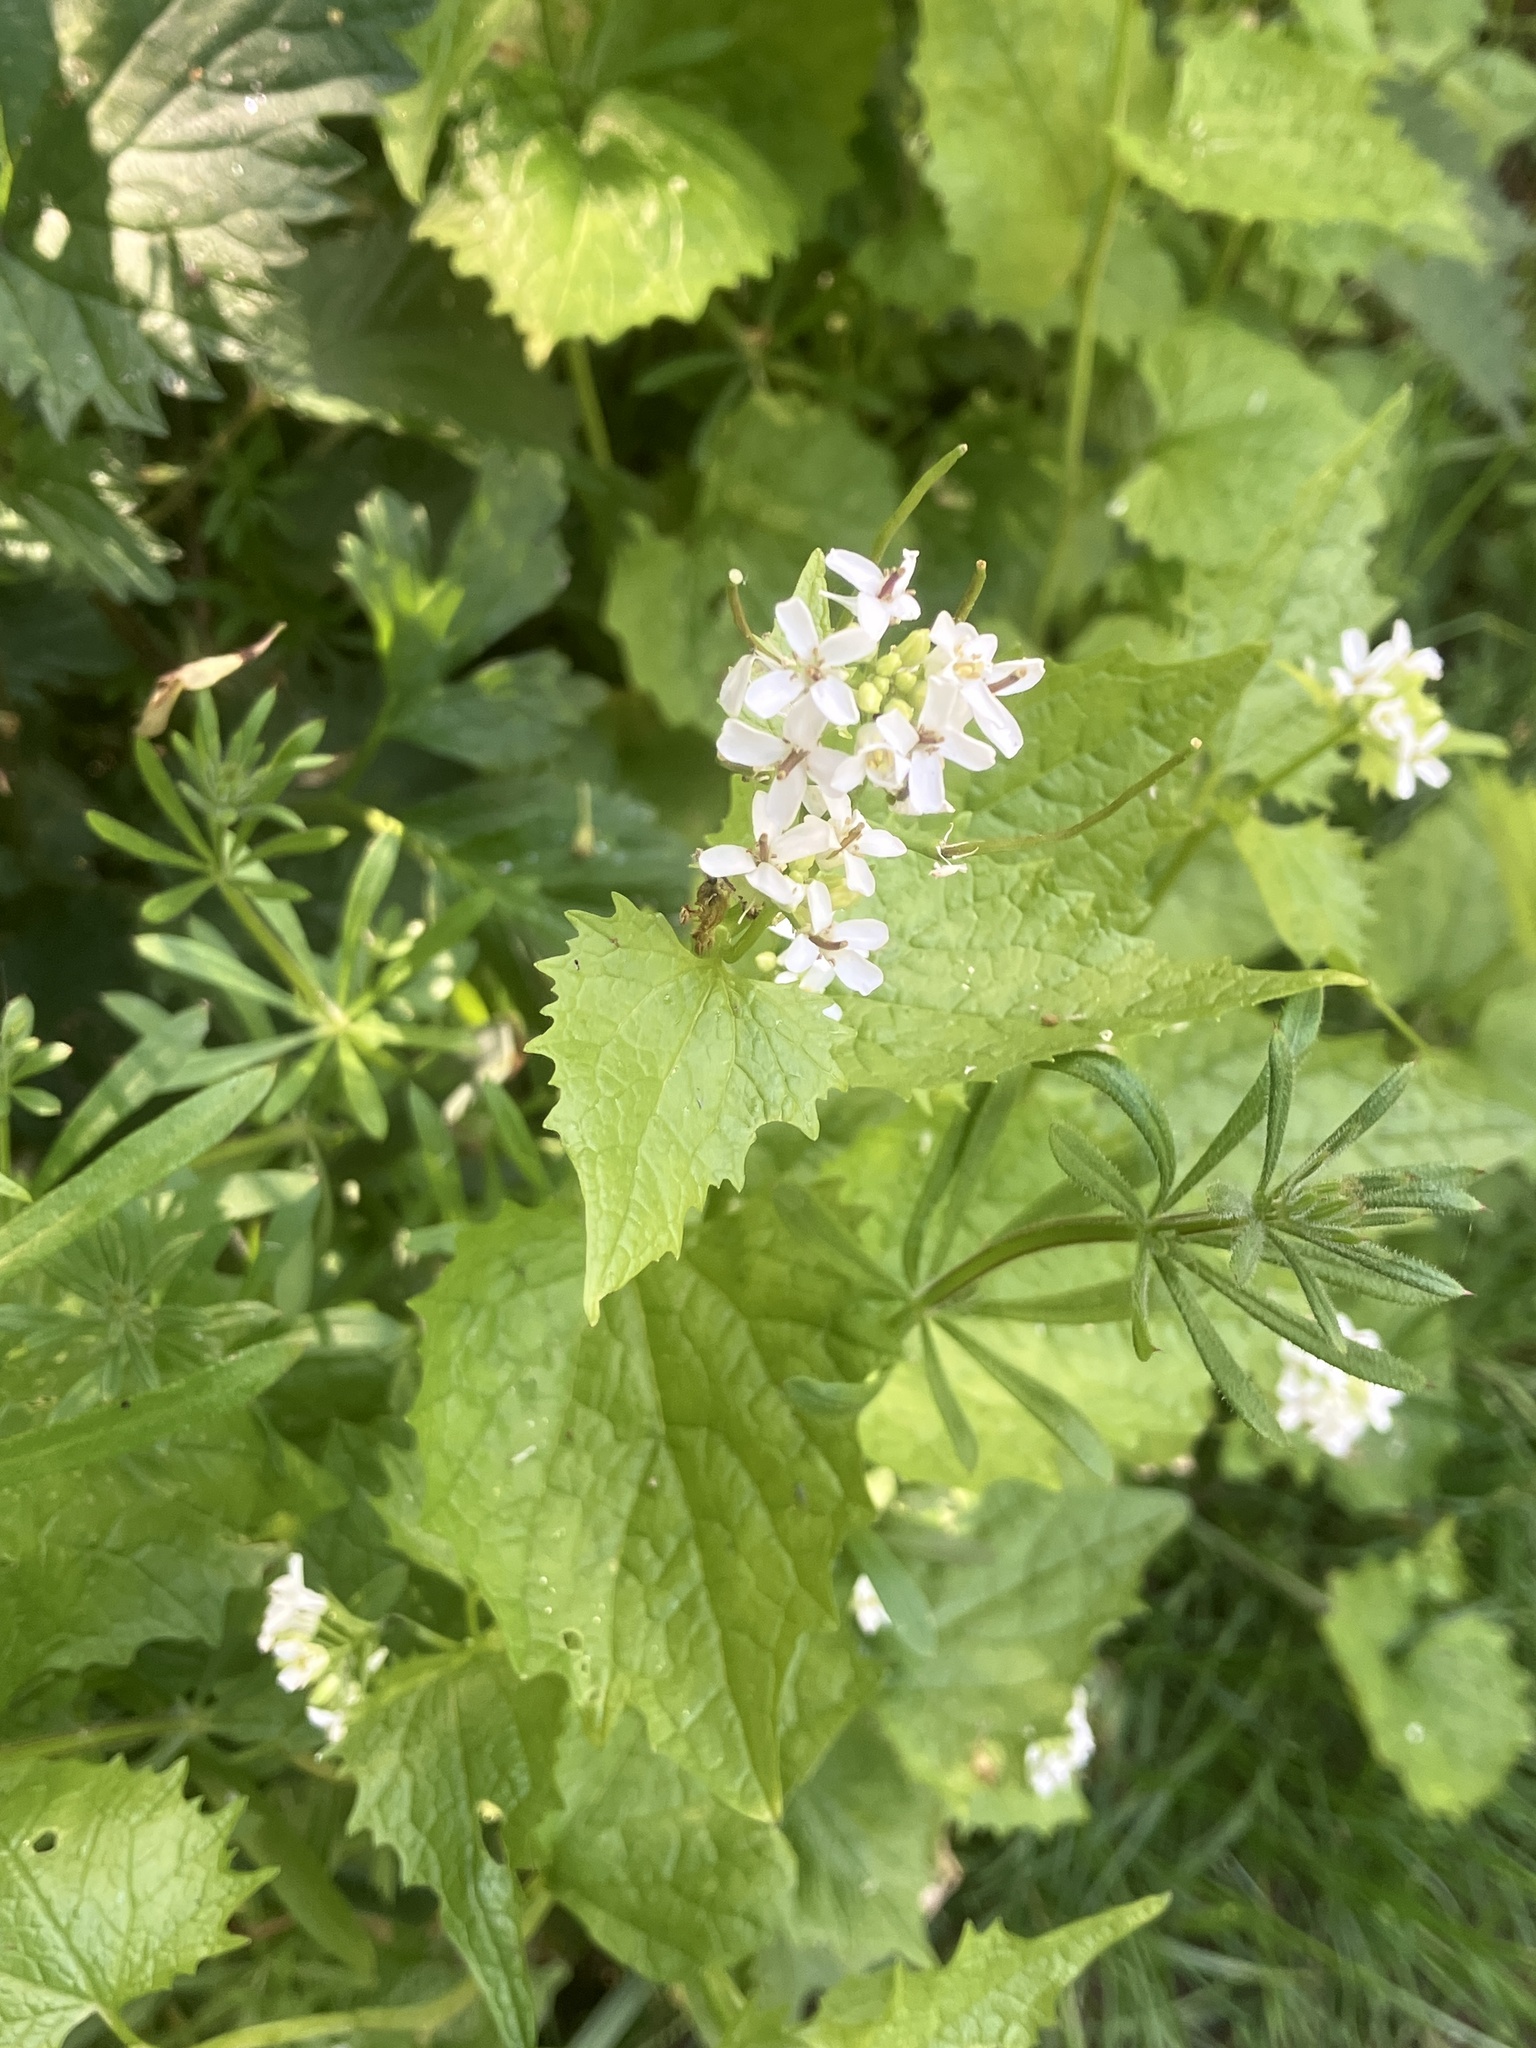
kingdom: Plantae
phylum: Tracheophyta
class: Magnoliopsida
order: Brassicales
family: Brassicaceae
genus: Alliaria
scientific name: Alliaria petiolata
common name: Garlic mustard
